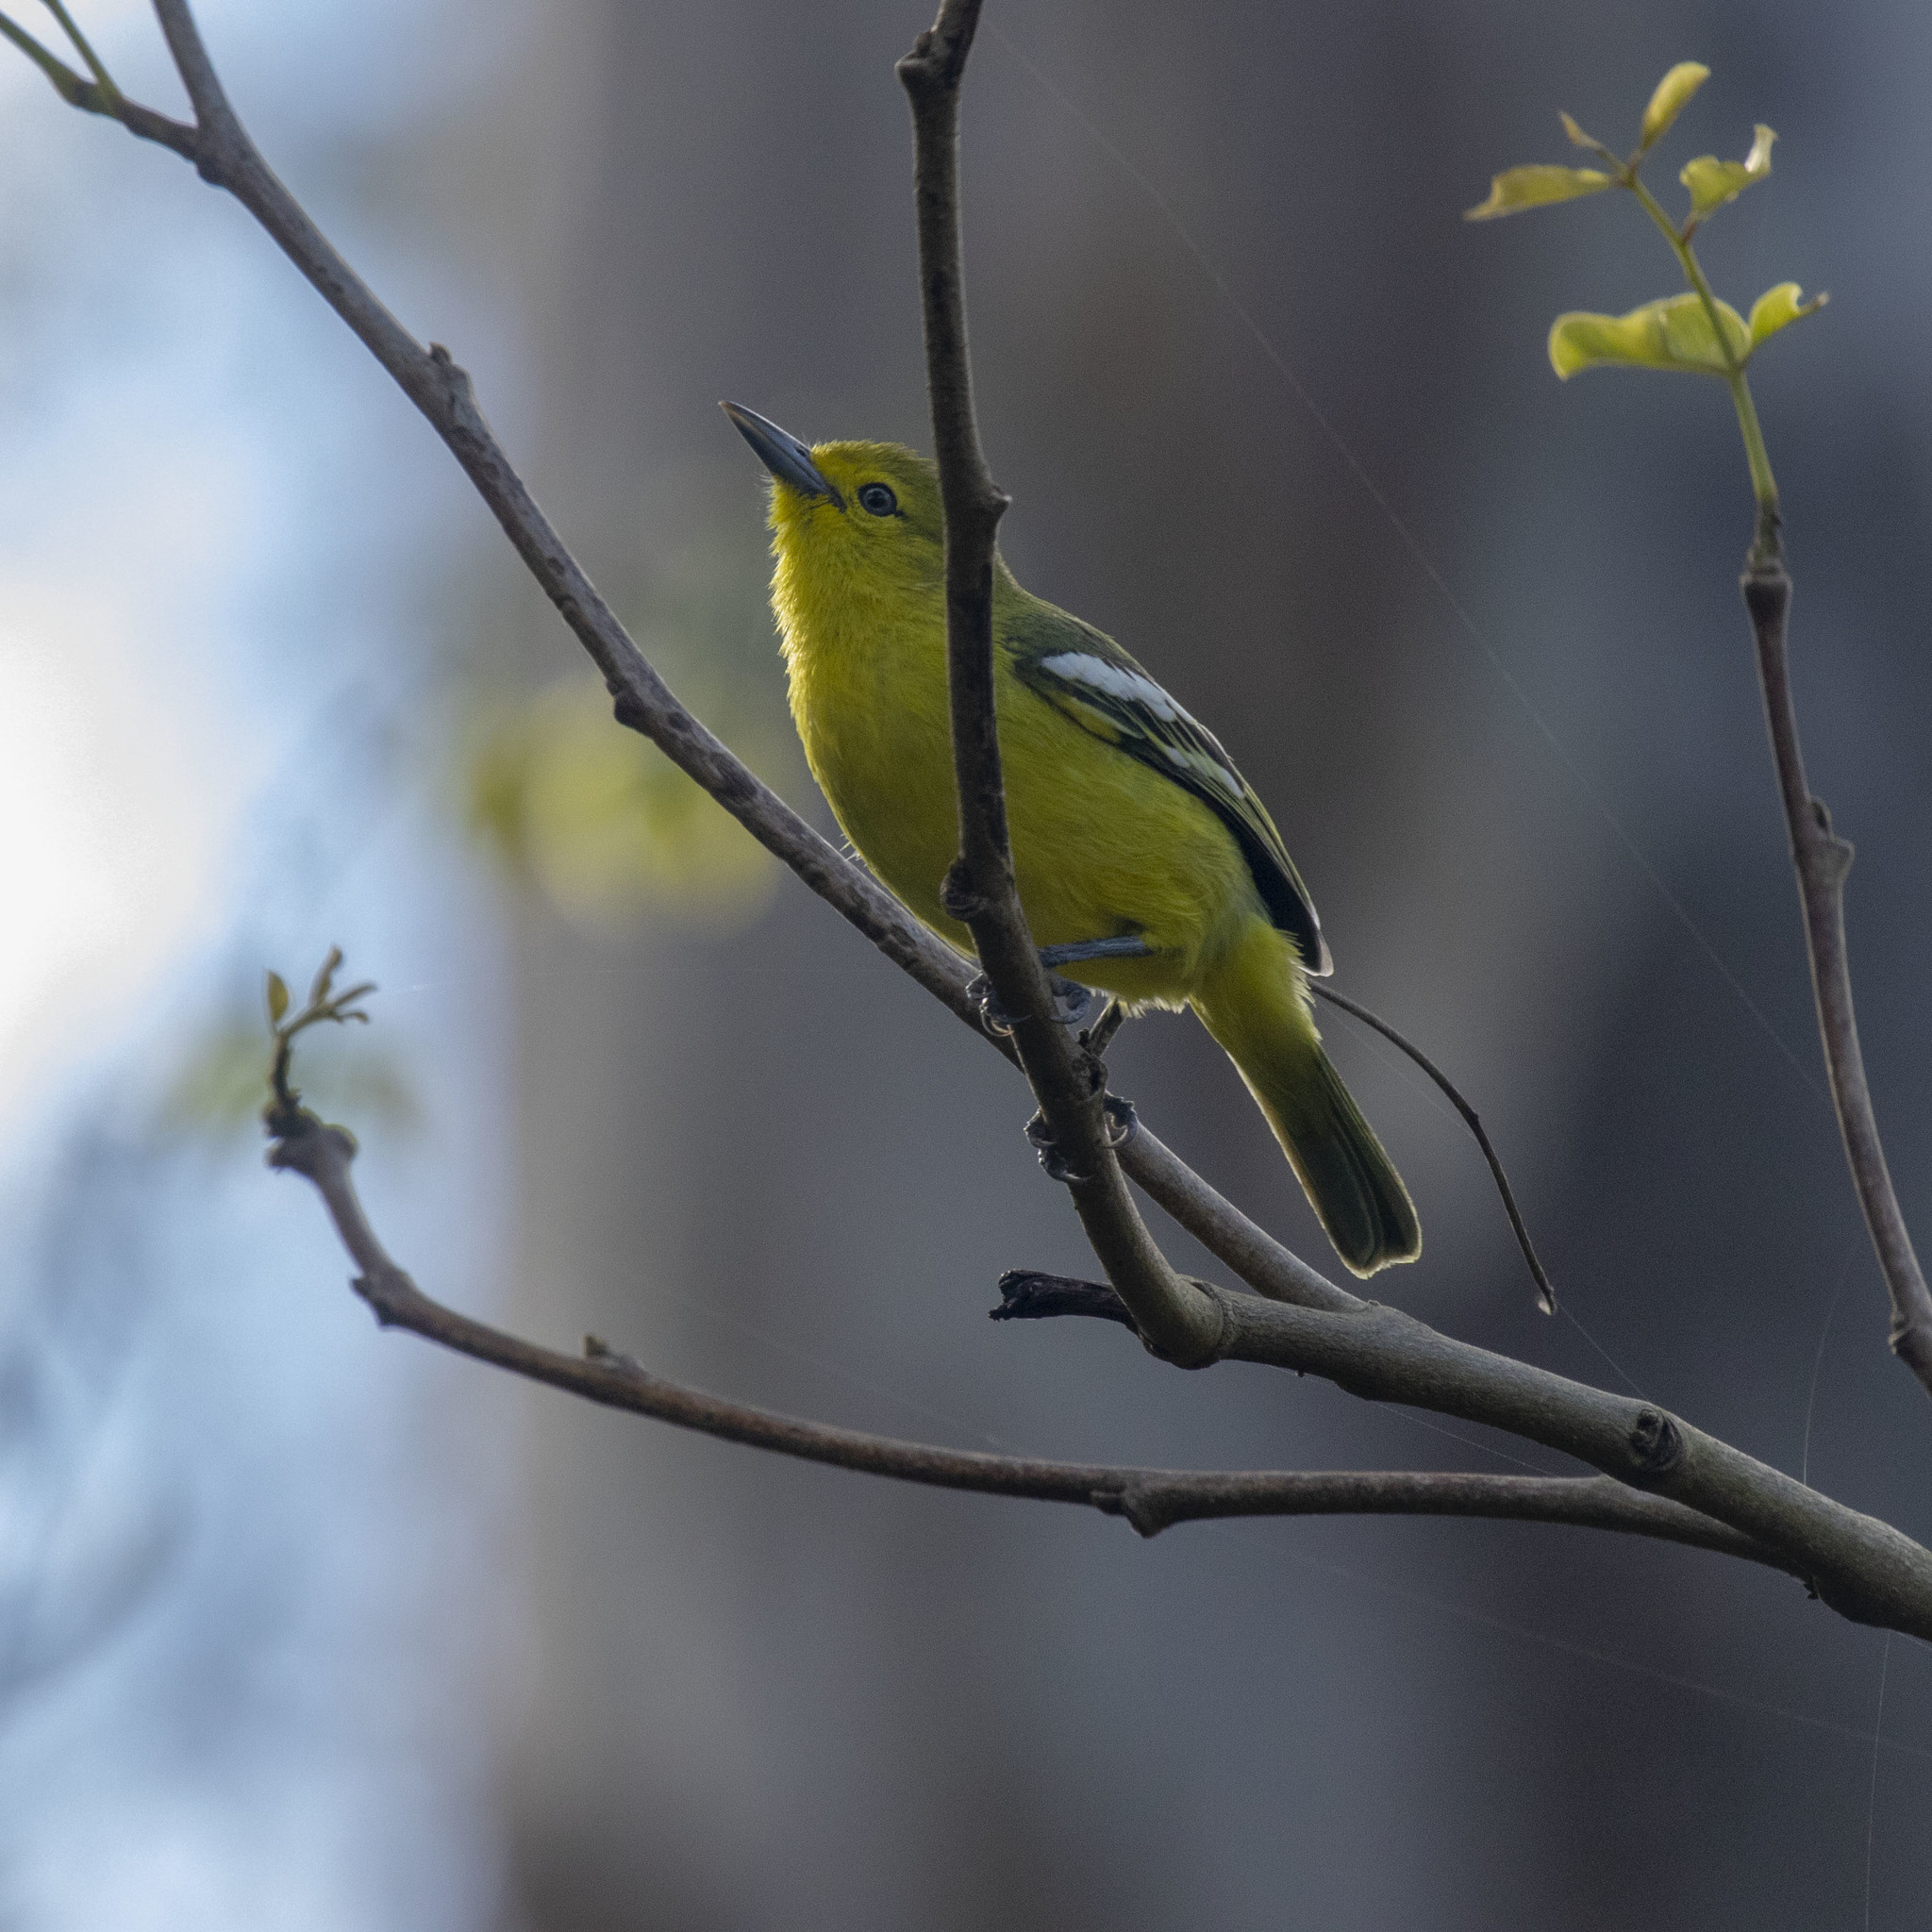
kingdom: Animalia
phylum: Chordata
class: Aves
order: Passeriformes
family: Aegithinidae
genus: Aegithina
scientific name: Aegithina tiphia
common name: Common iora
